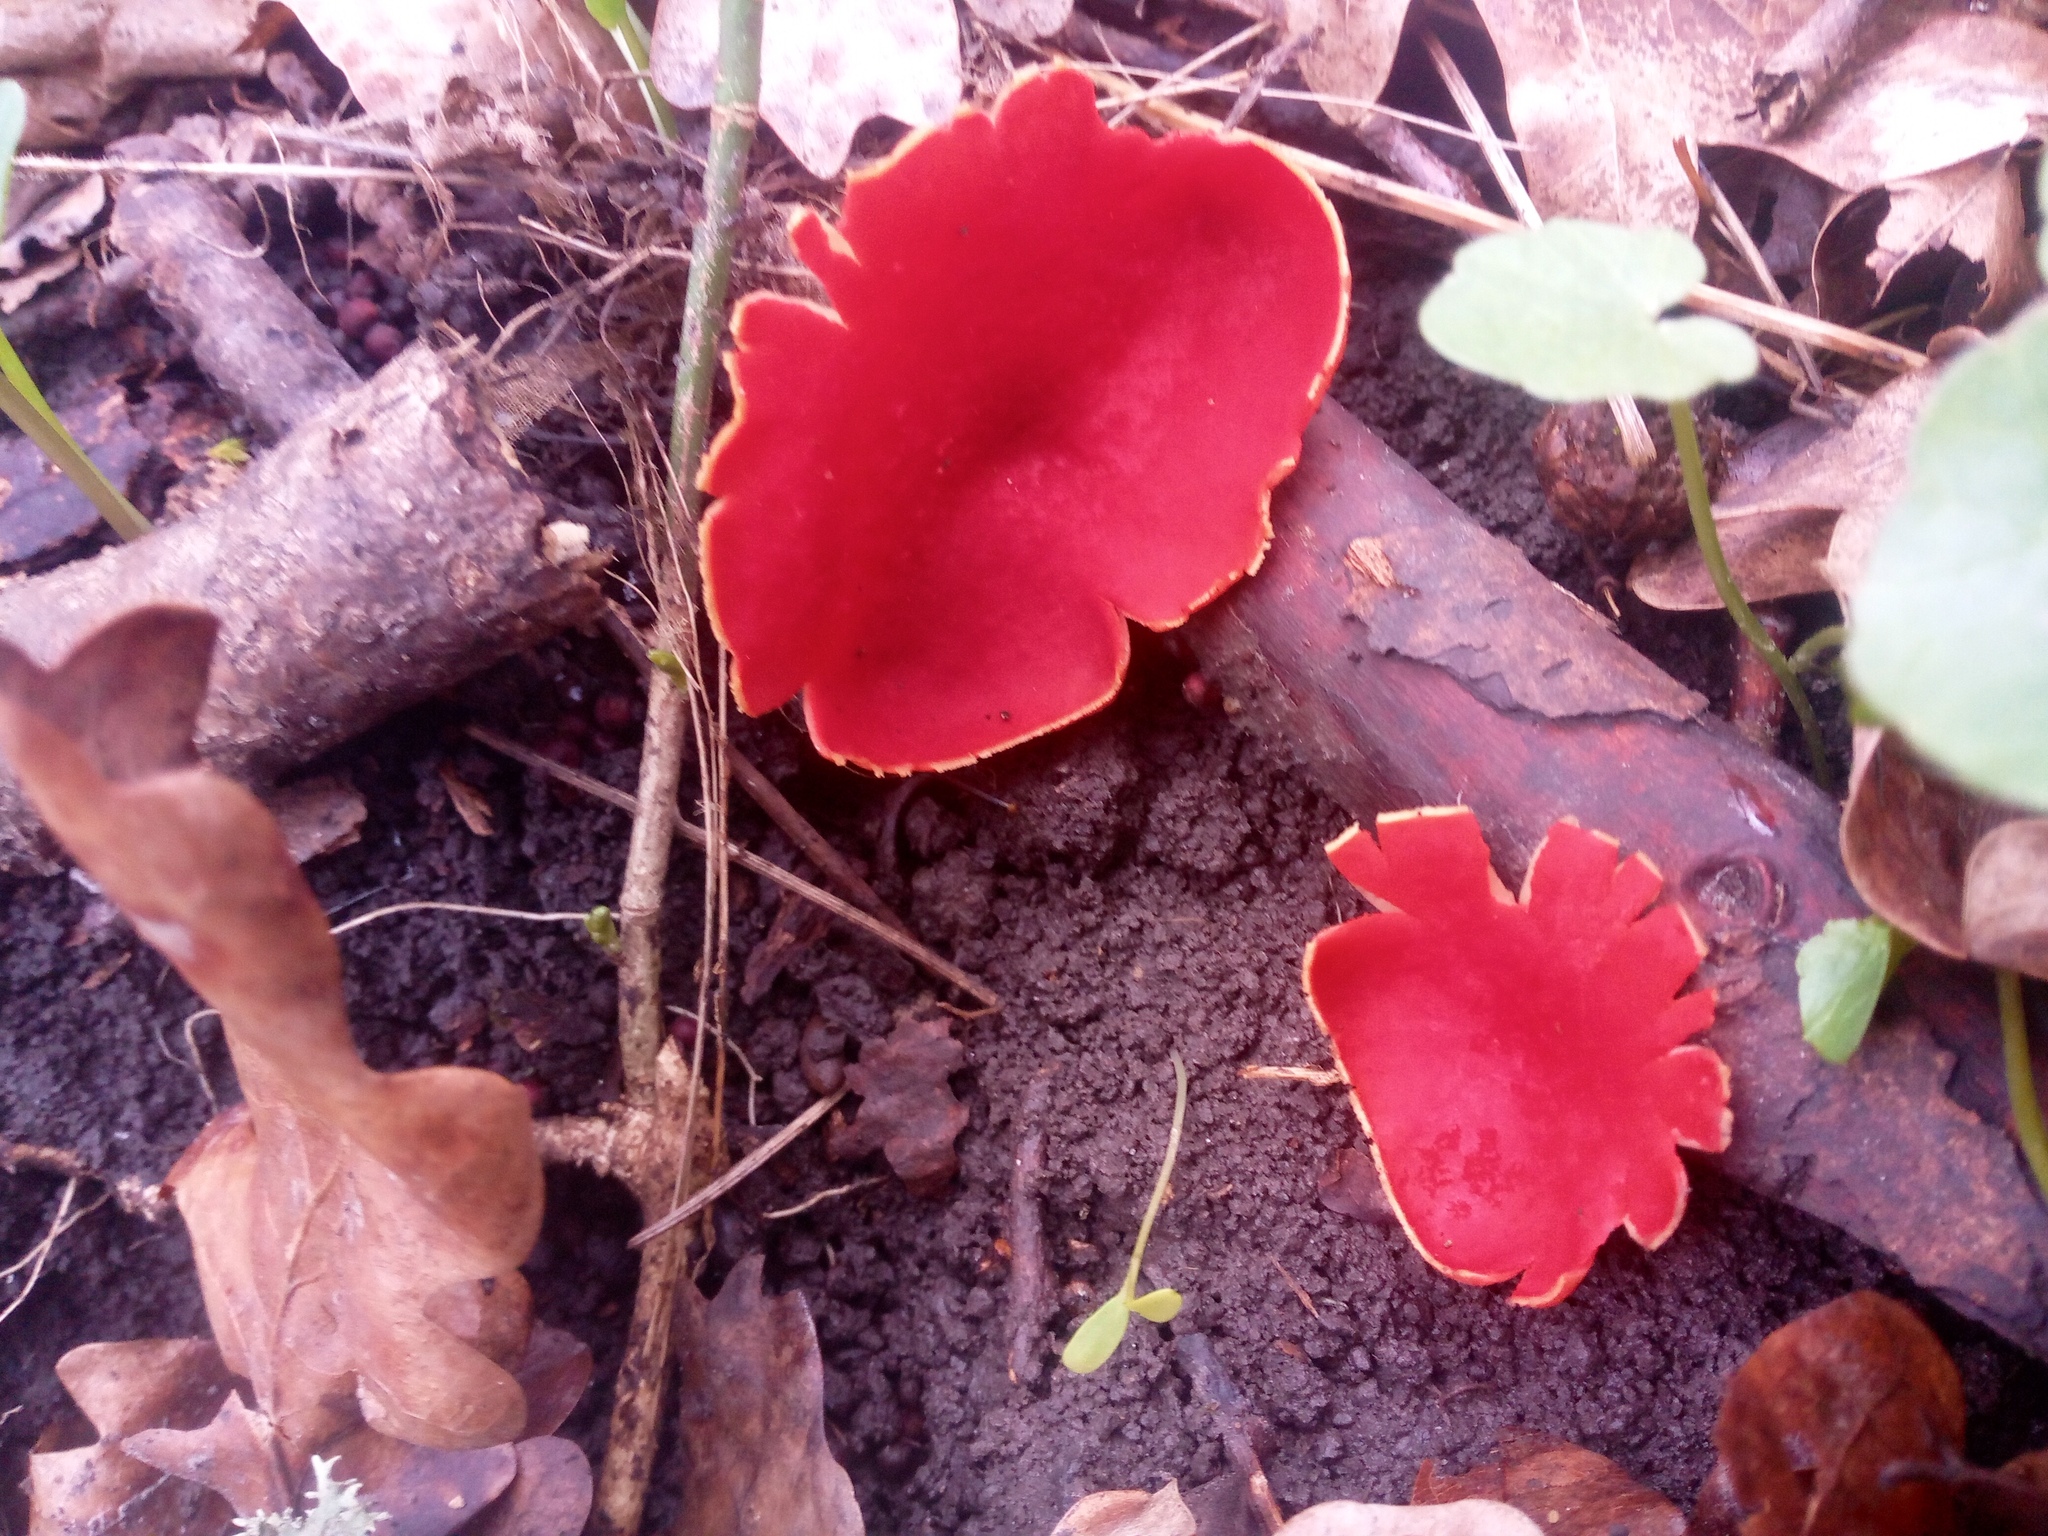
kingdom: Fungi
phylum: Ascomycota
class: Pezizomycetes
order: Pezizales
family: Sarcoscyphaceae
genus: Sarcoscypha
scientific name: Sarcoscypha
